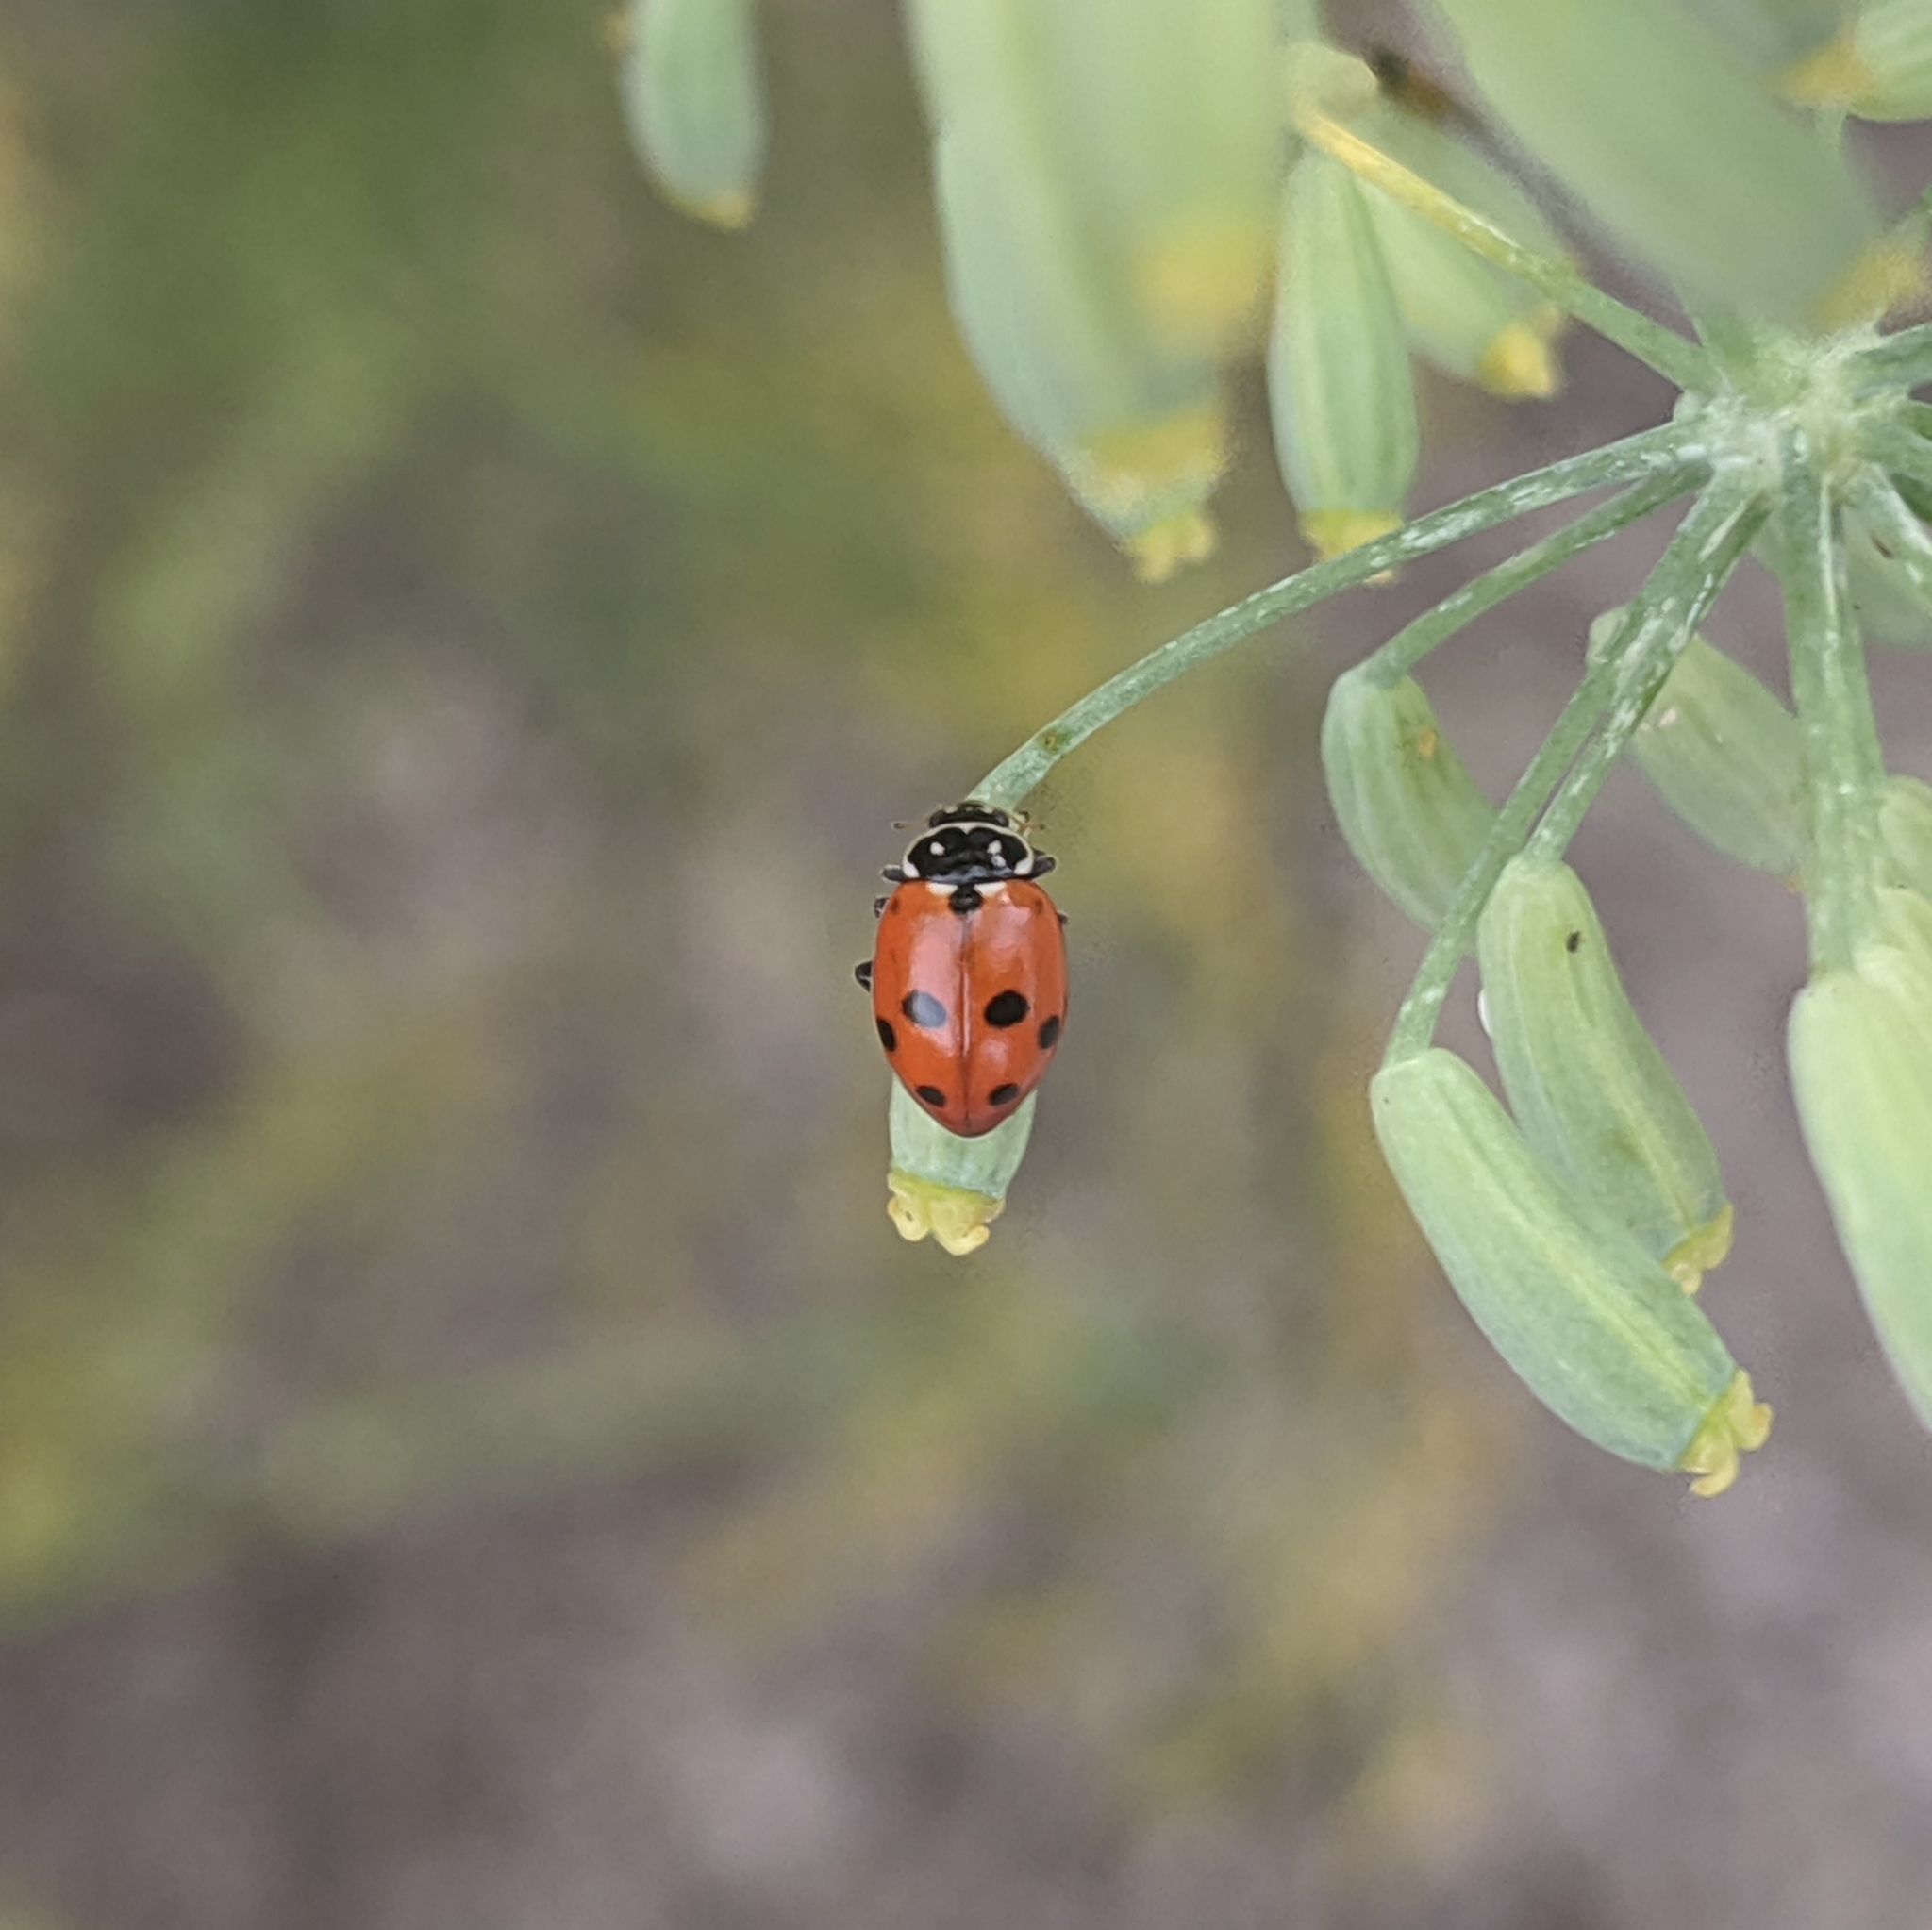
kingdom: Animalia
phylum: Arthropoda
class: Insecta
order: Coleoptera
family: Coccinellidae
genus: Hippodamia
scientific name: Hippodamia variegata
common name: Ladybird beetle
